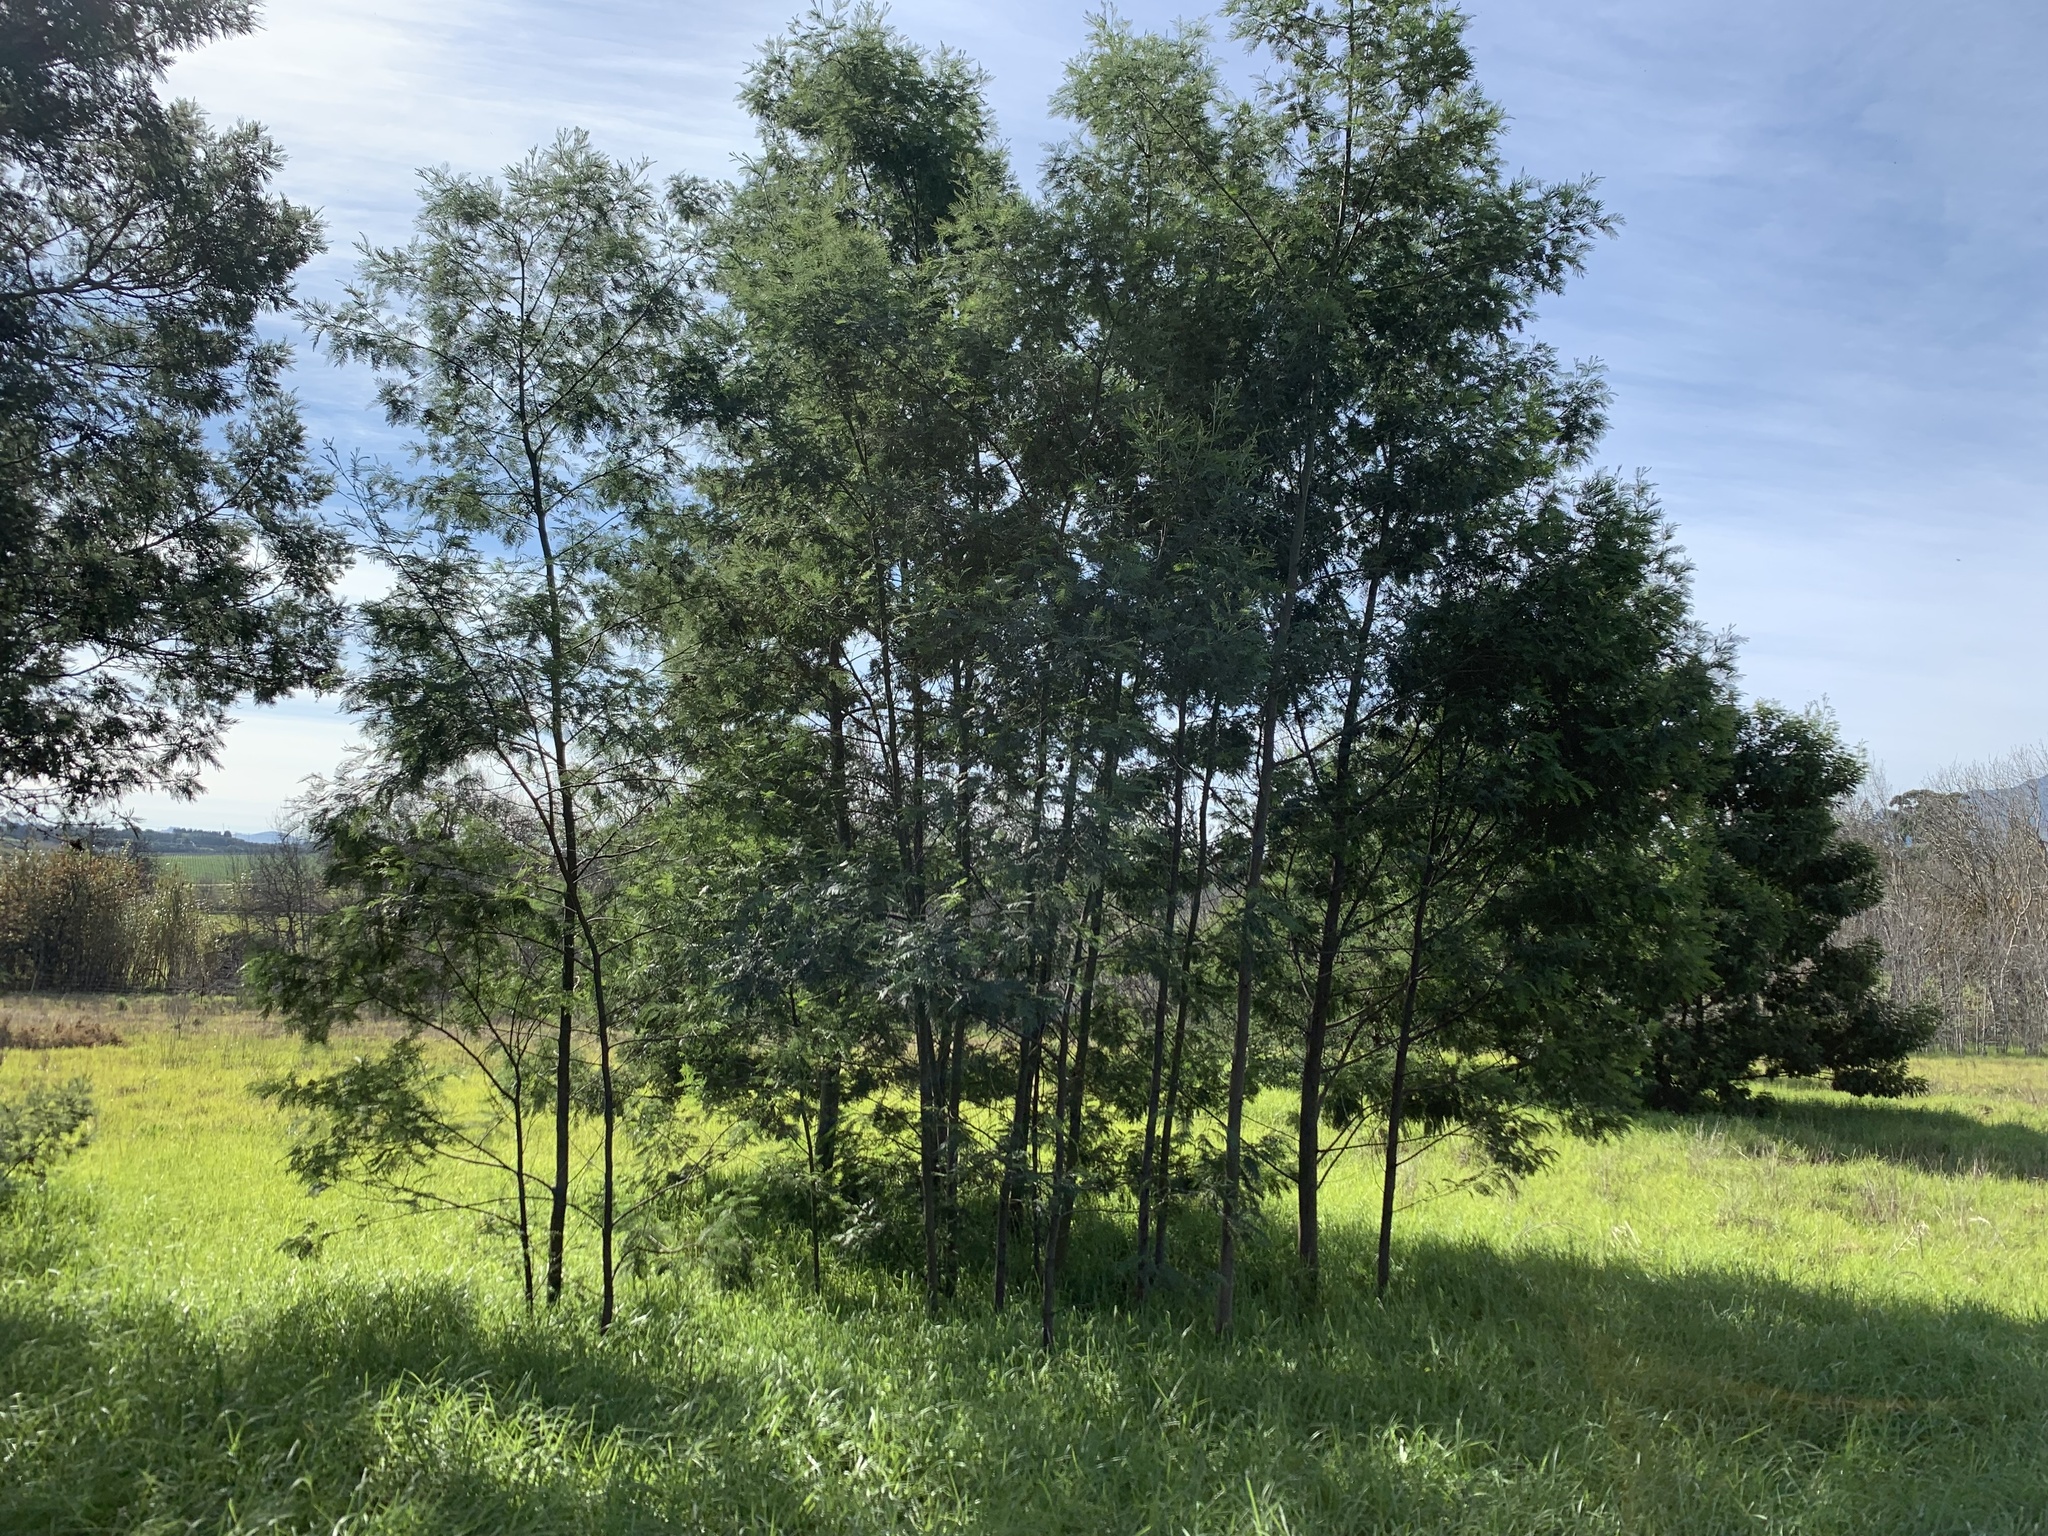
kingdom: Plantae
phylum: Tracheophyta
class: Magnoliopsida
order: Fabales
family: Fabaceae
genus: Acacia
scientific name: Acacia mearnsii
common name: Black wattle
